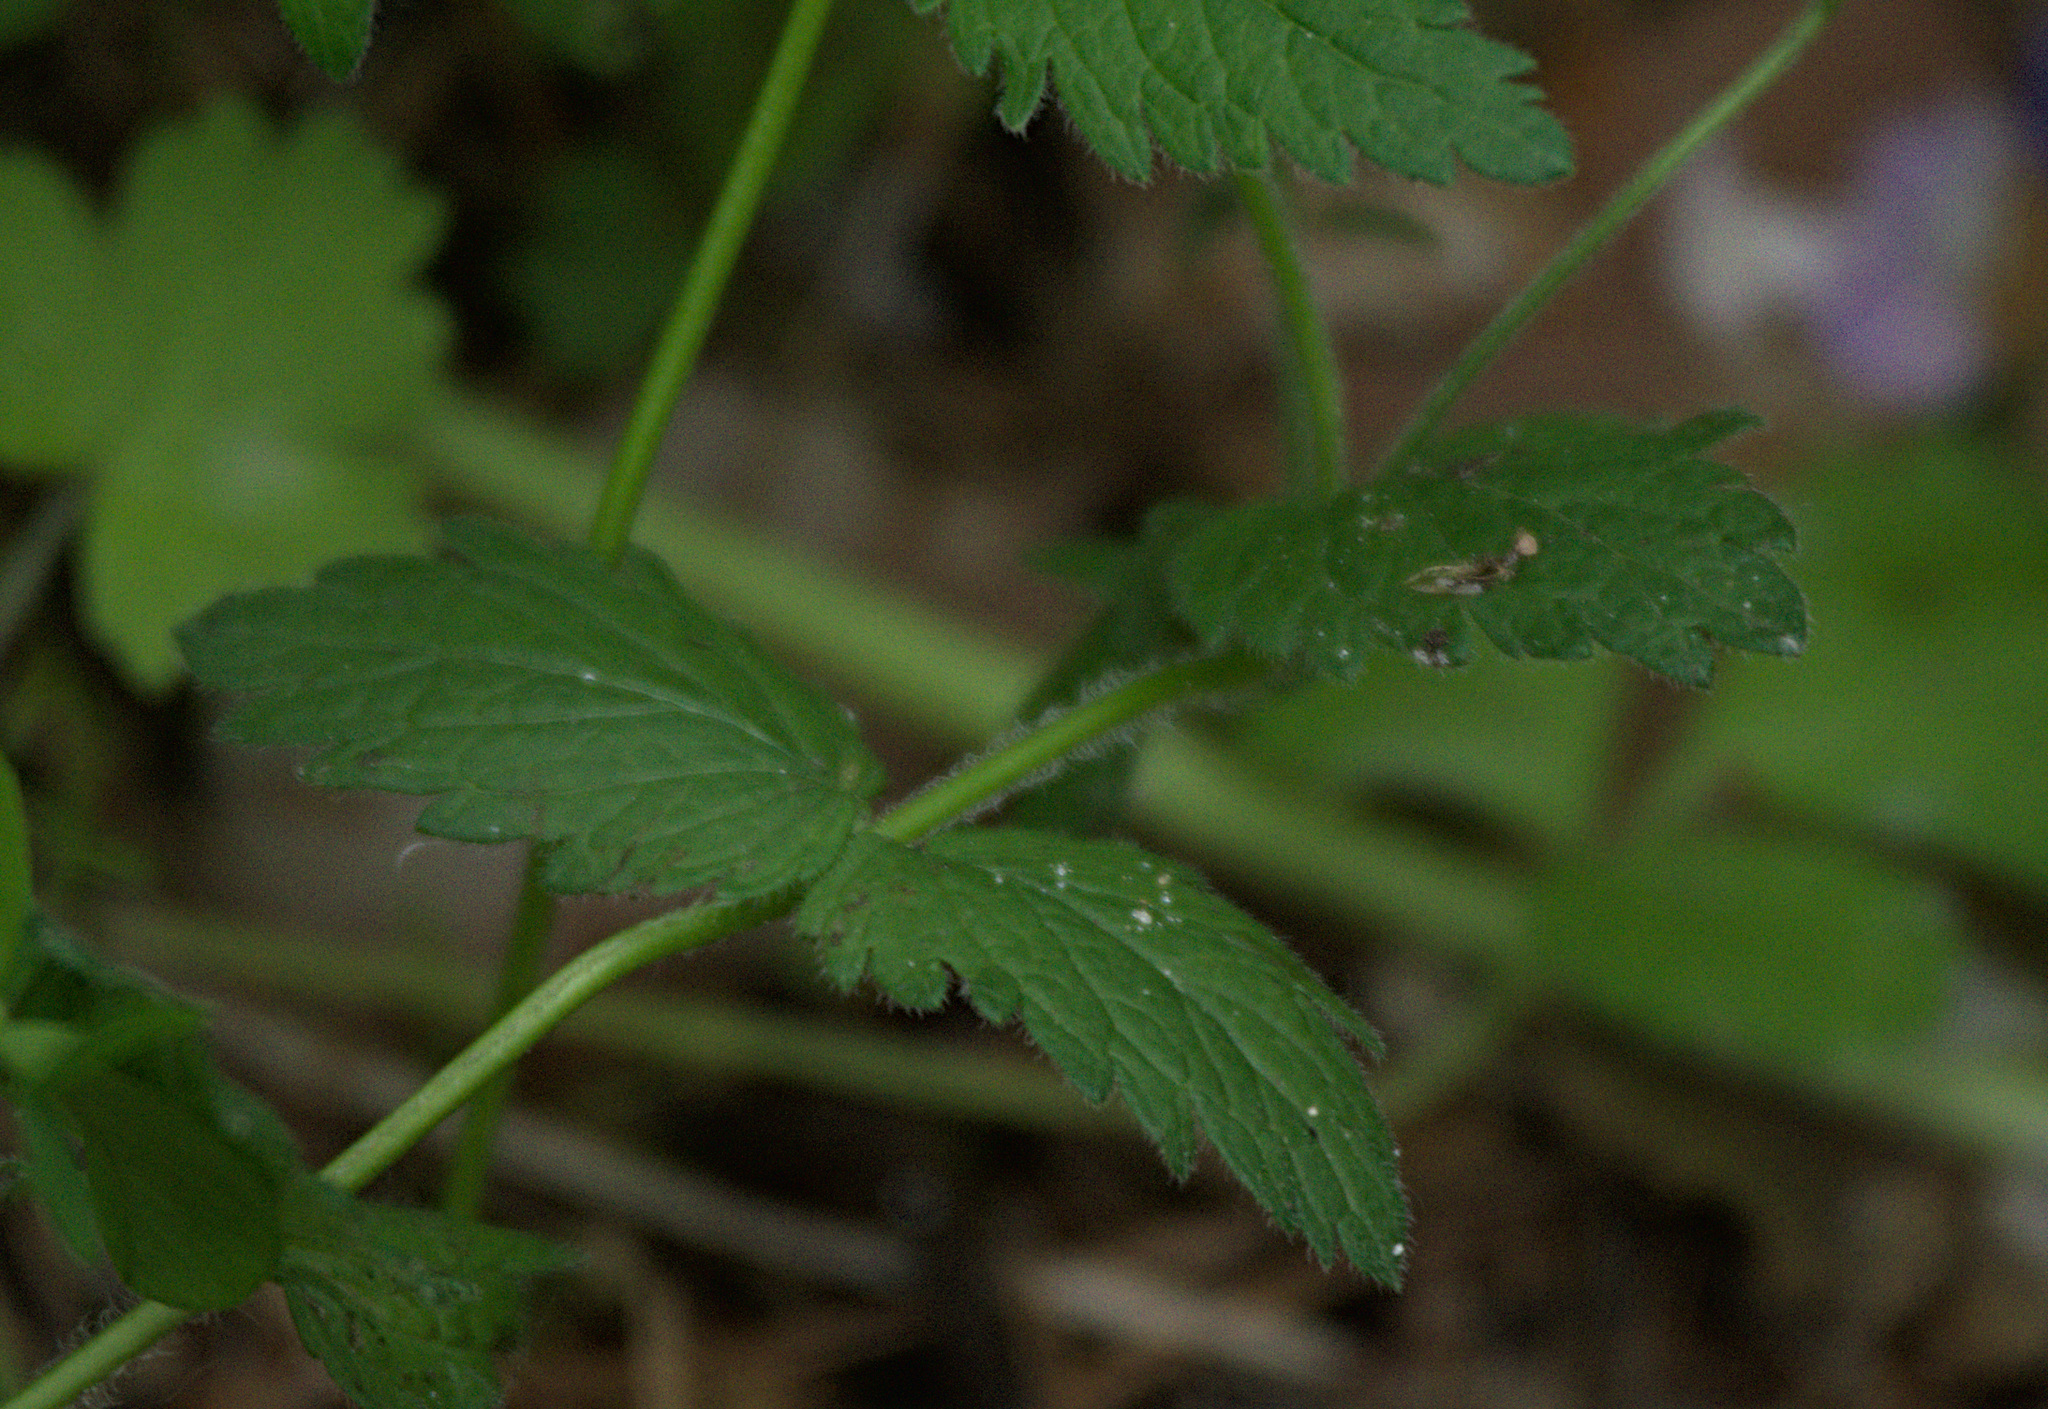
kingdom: Plantae
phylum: Tracheophyta
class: Magnoliopsida
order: Lamiales
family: Plantaginaceae
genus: Veronica
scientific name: Veronica chamaedrys
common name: Germander speedwell
